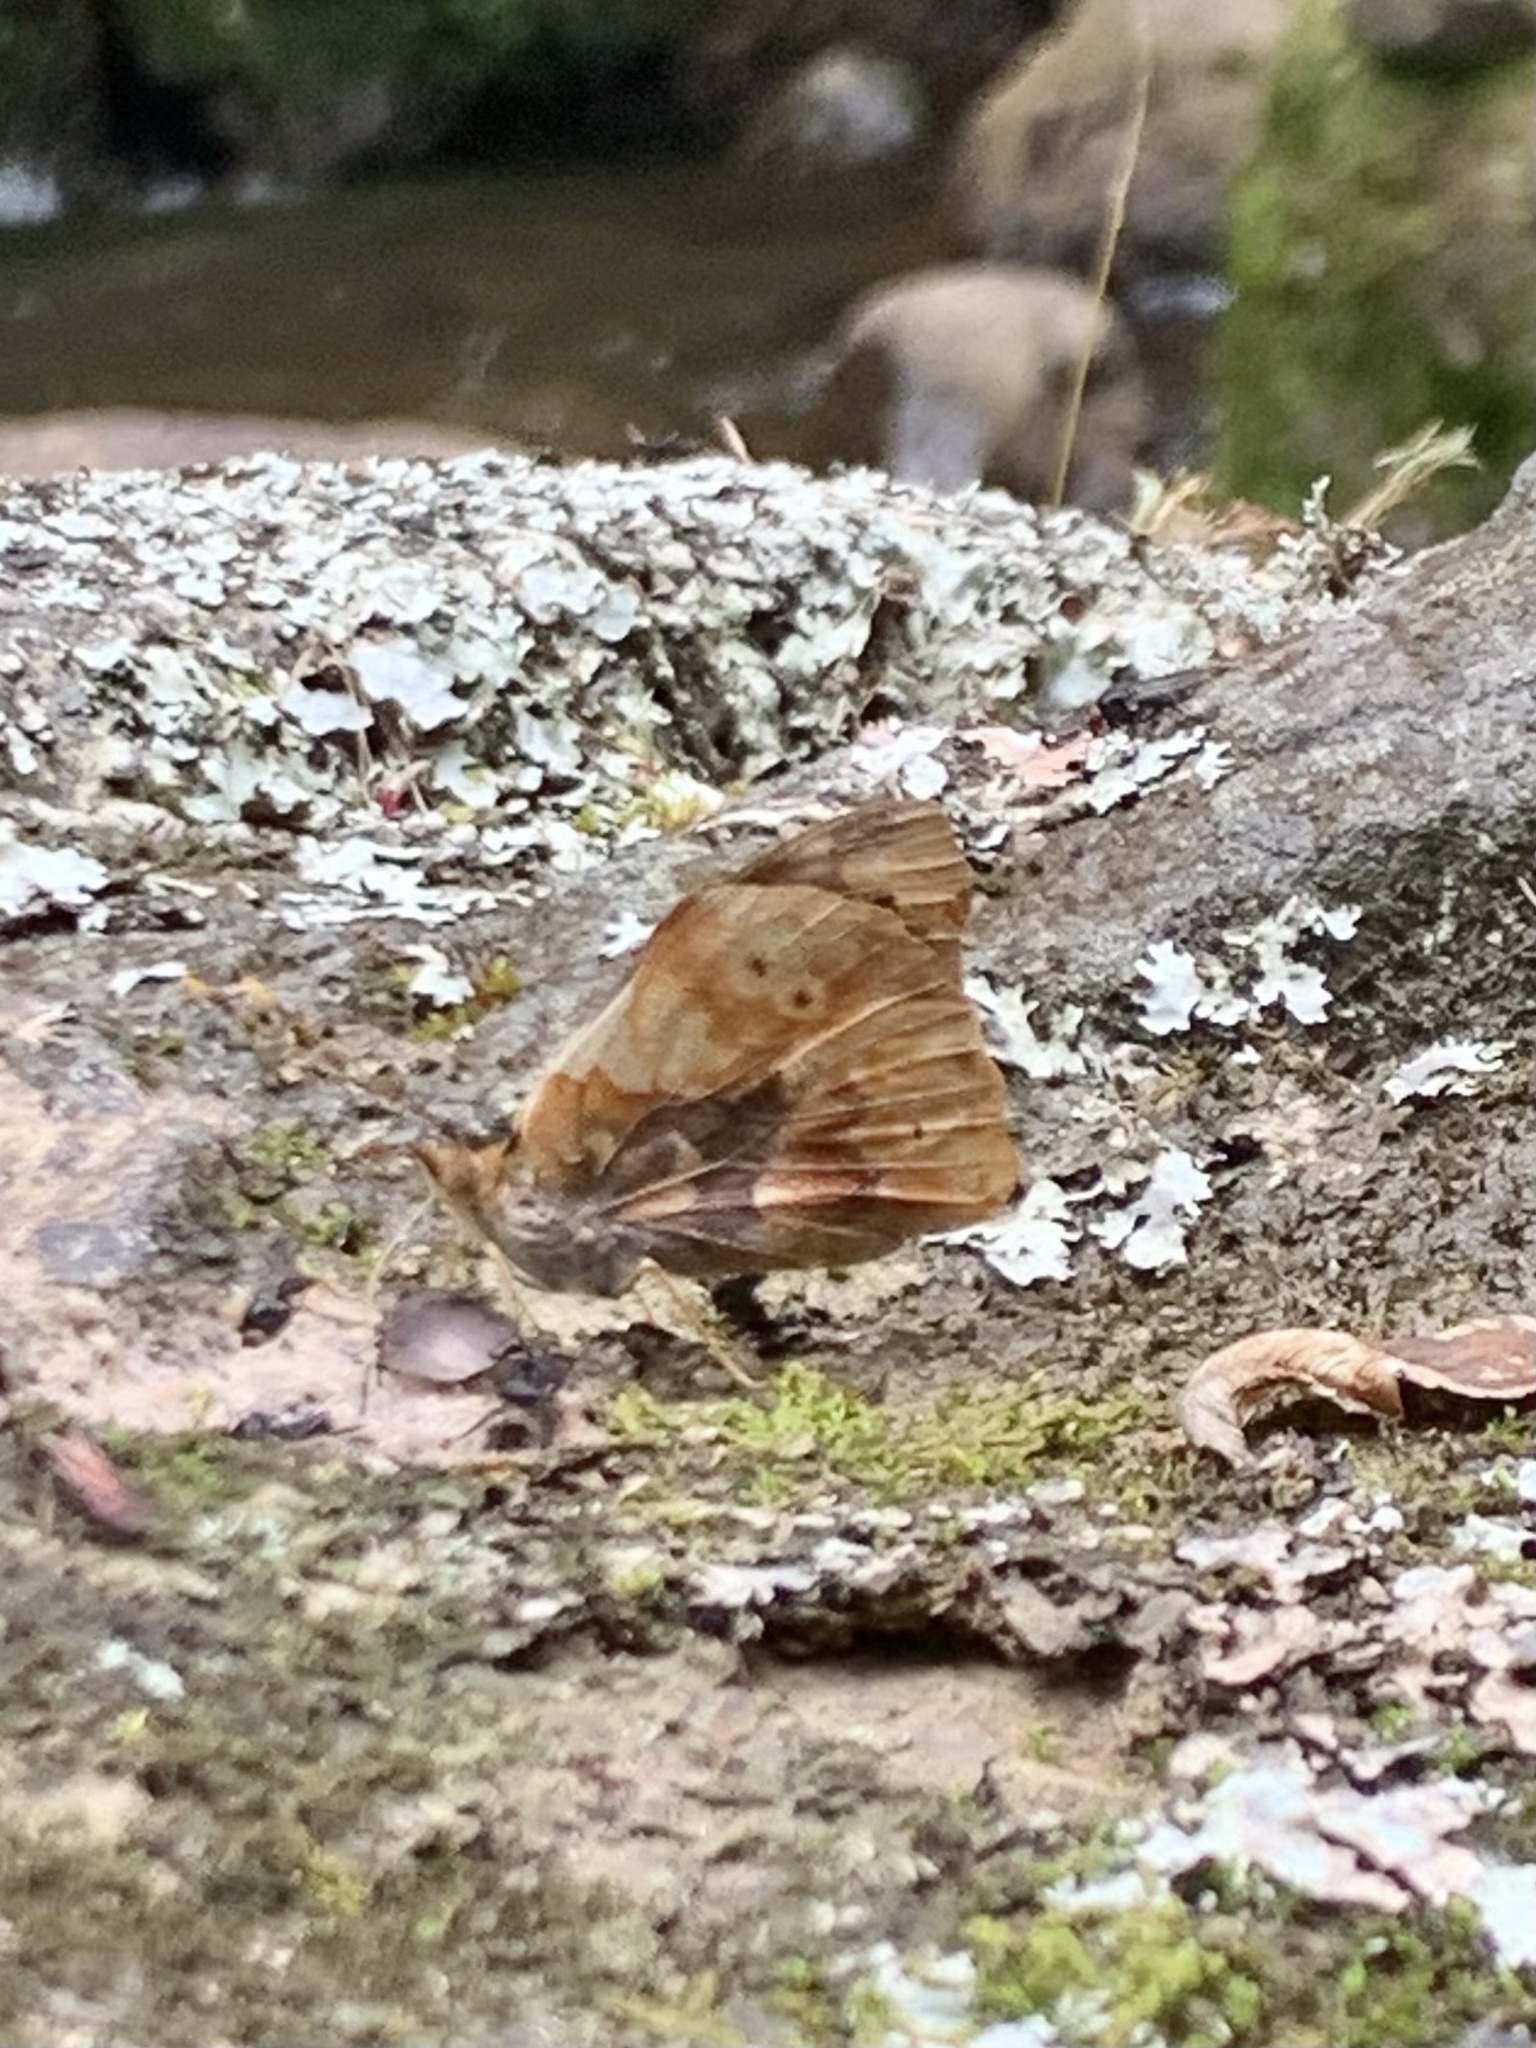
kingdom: Animalia
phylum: Arthropoda
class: Insecta
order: Lepidoptera
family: Nymphalidae
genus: Epiphile
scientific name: Epiphile chrysites
